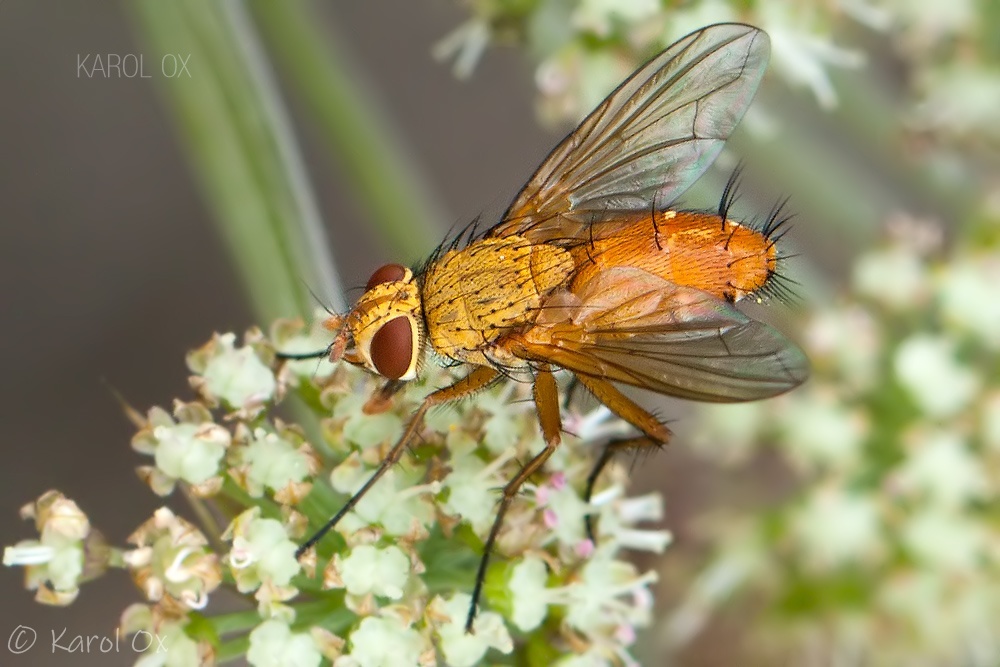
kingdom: Animalia
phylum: Arthropoda
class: Insecta
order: Diptera
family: Tachinidae
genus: Leskia
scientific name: Leskia aurea
